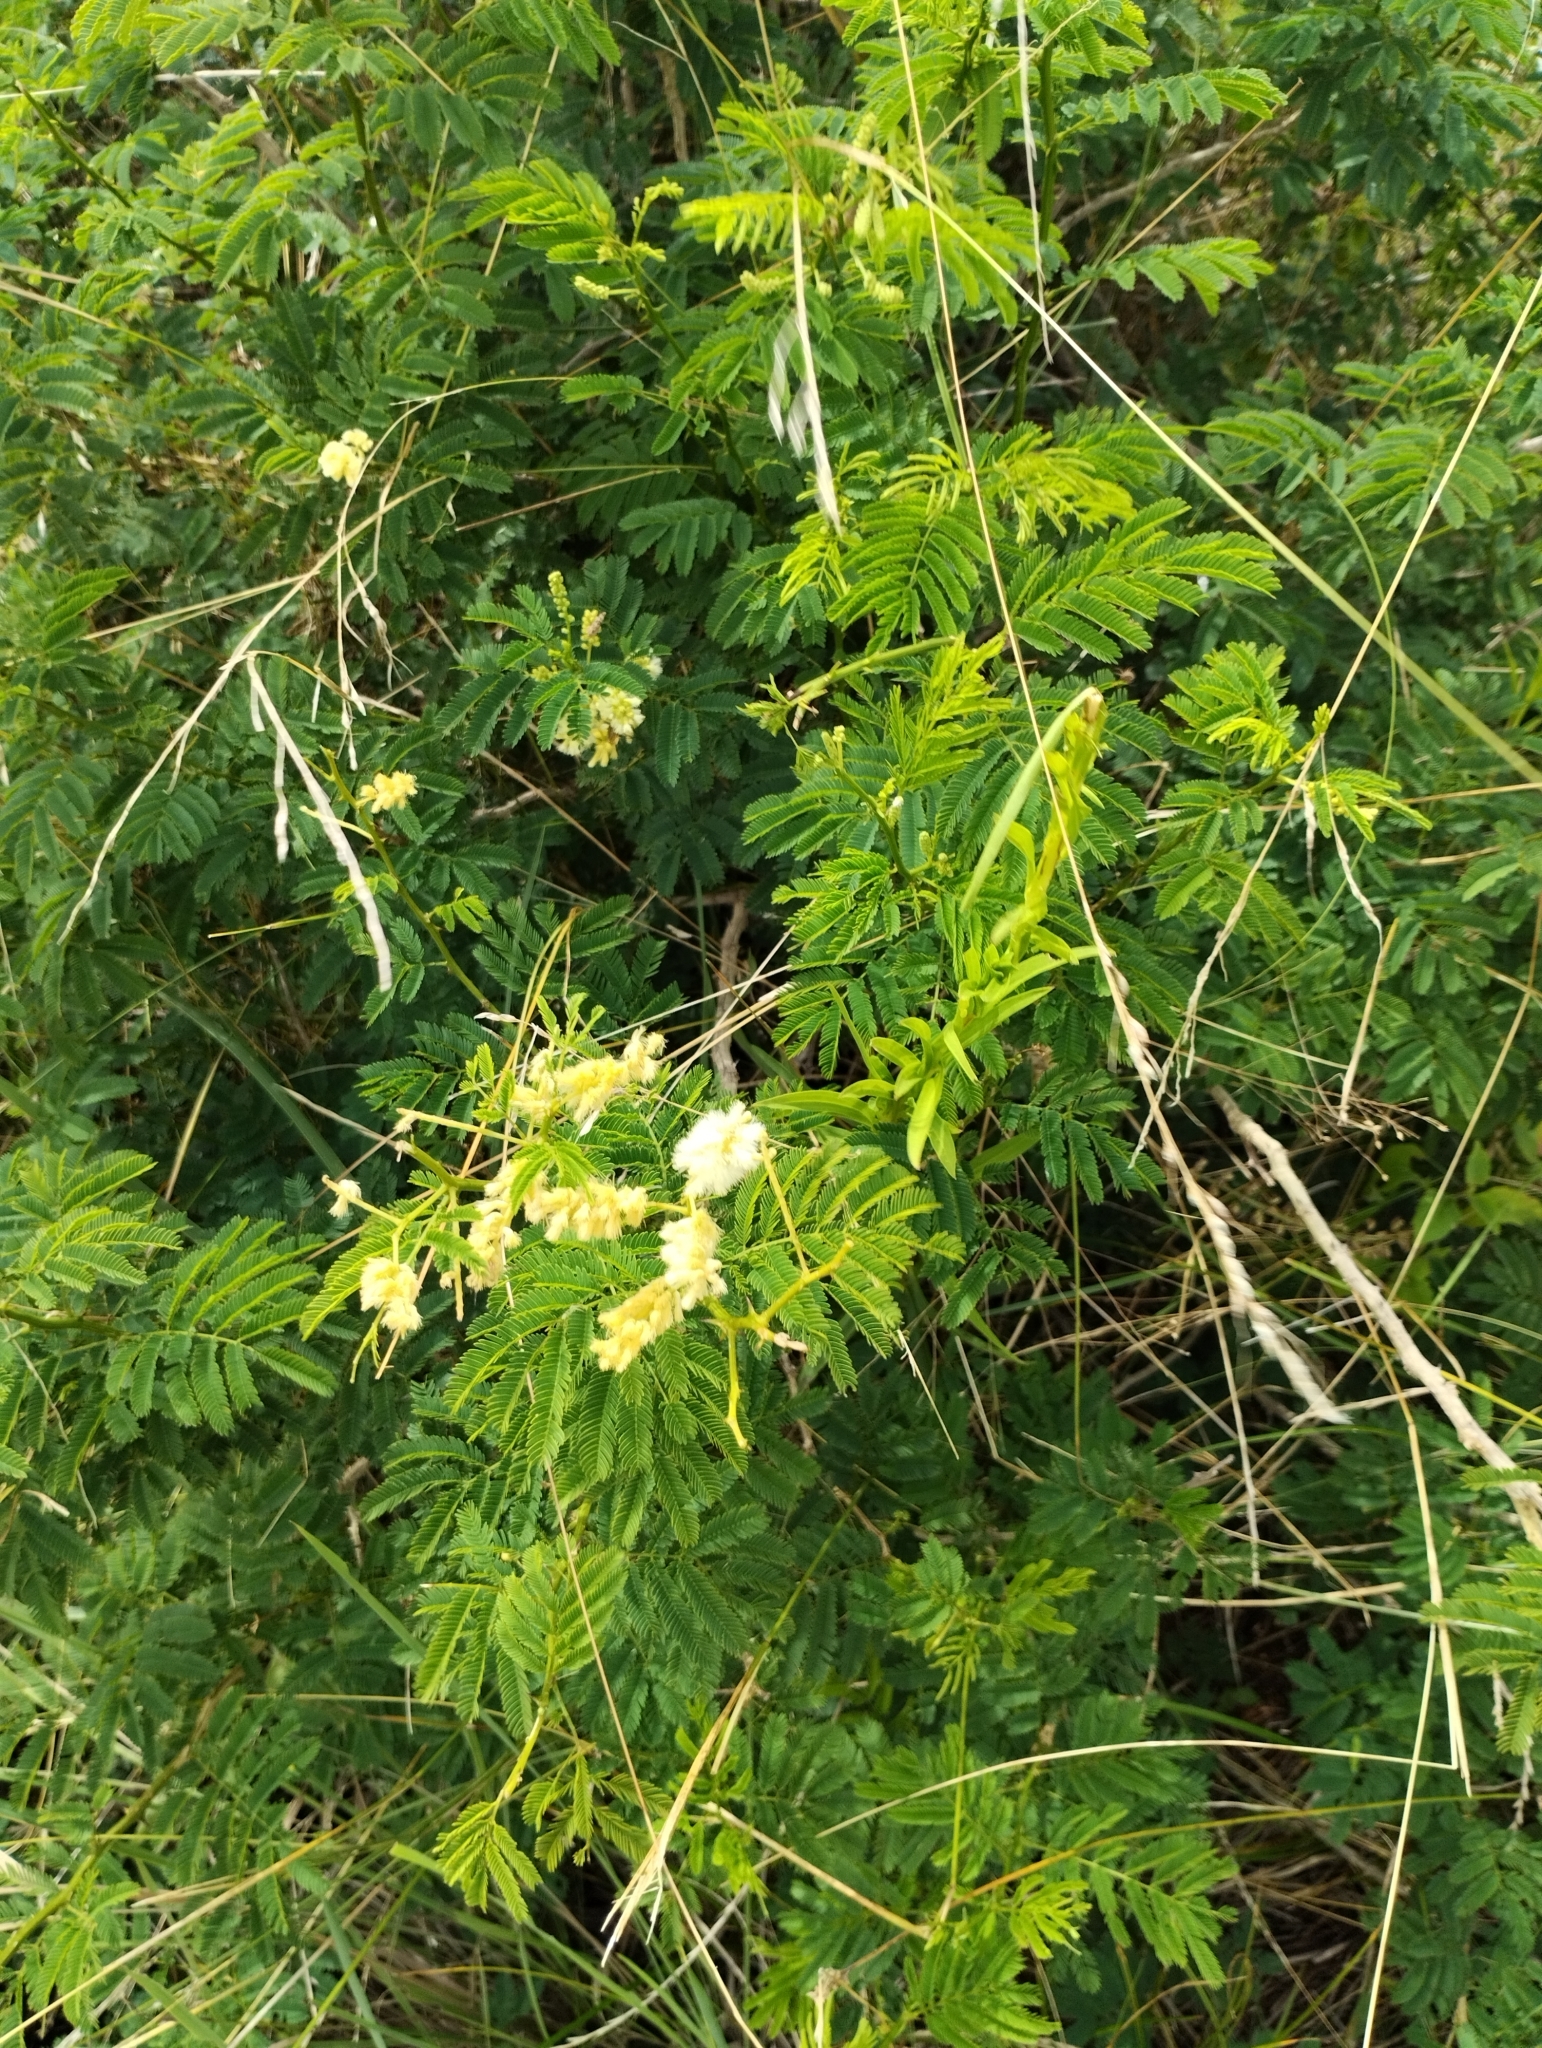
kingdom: Plantae
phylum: Tracheophyta
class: Magnoliopsida
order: Fabales
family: Fabaceae
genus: Senegalia
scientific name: Senegalia bonariensis
